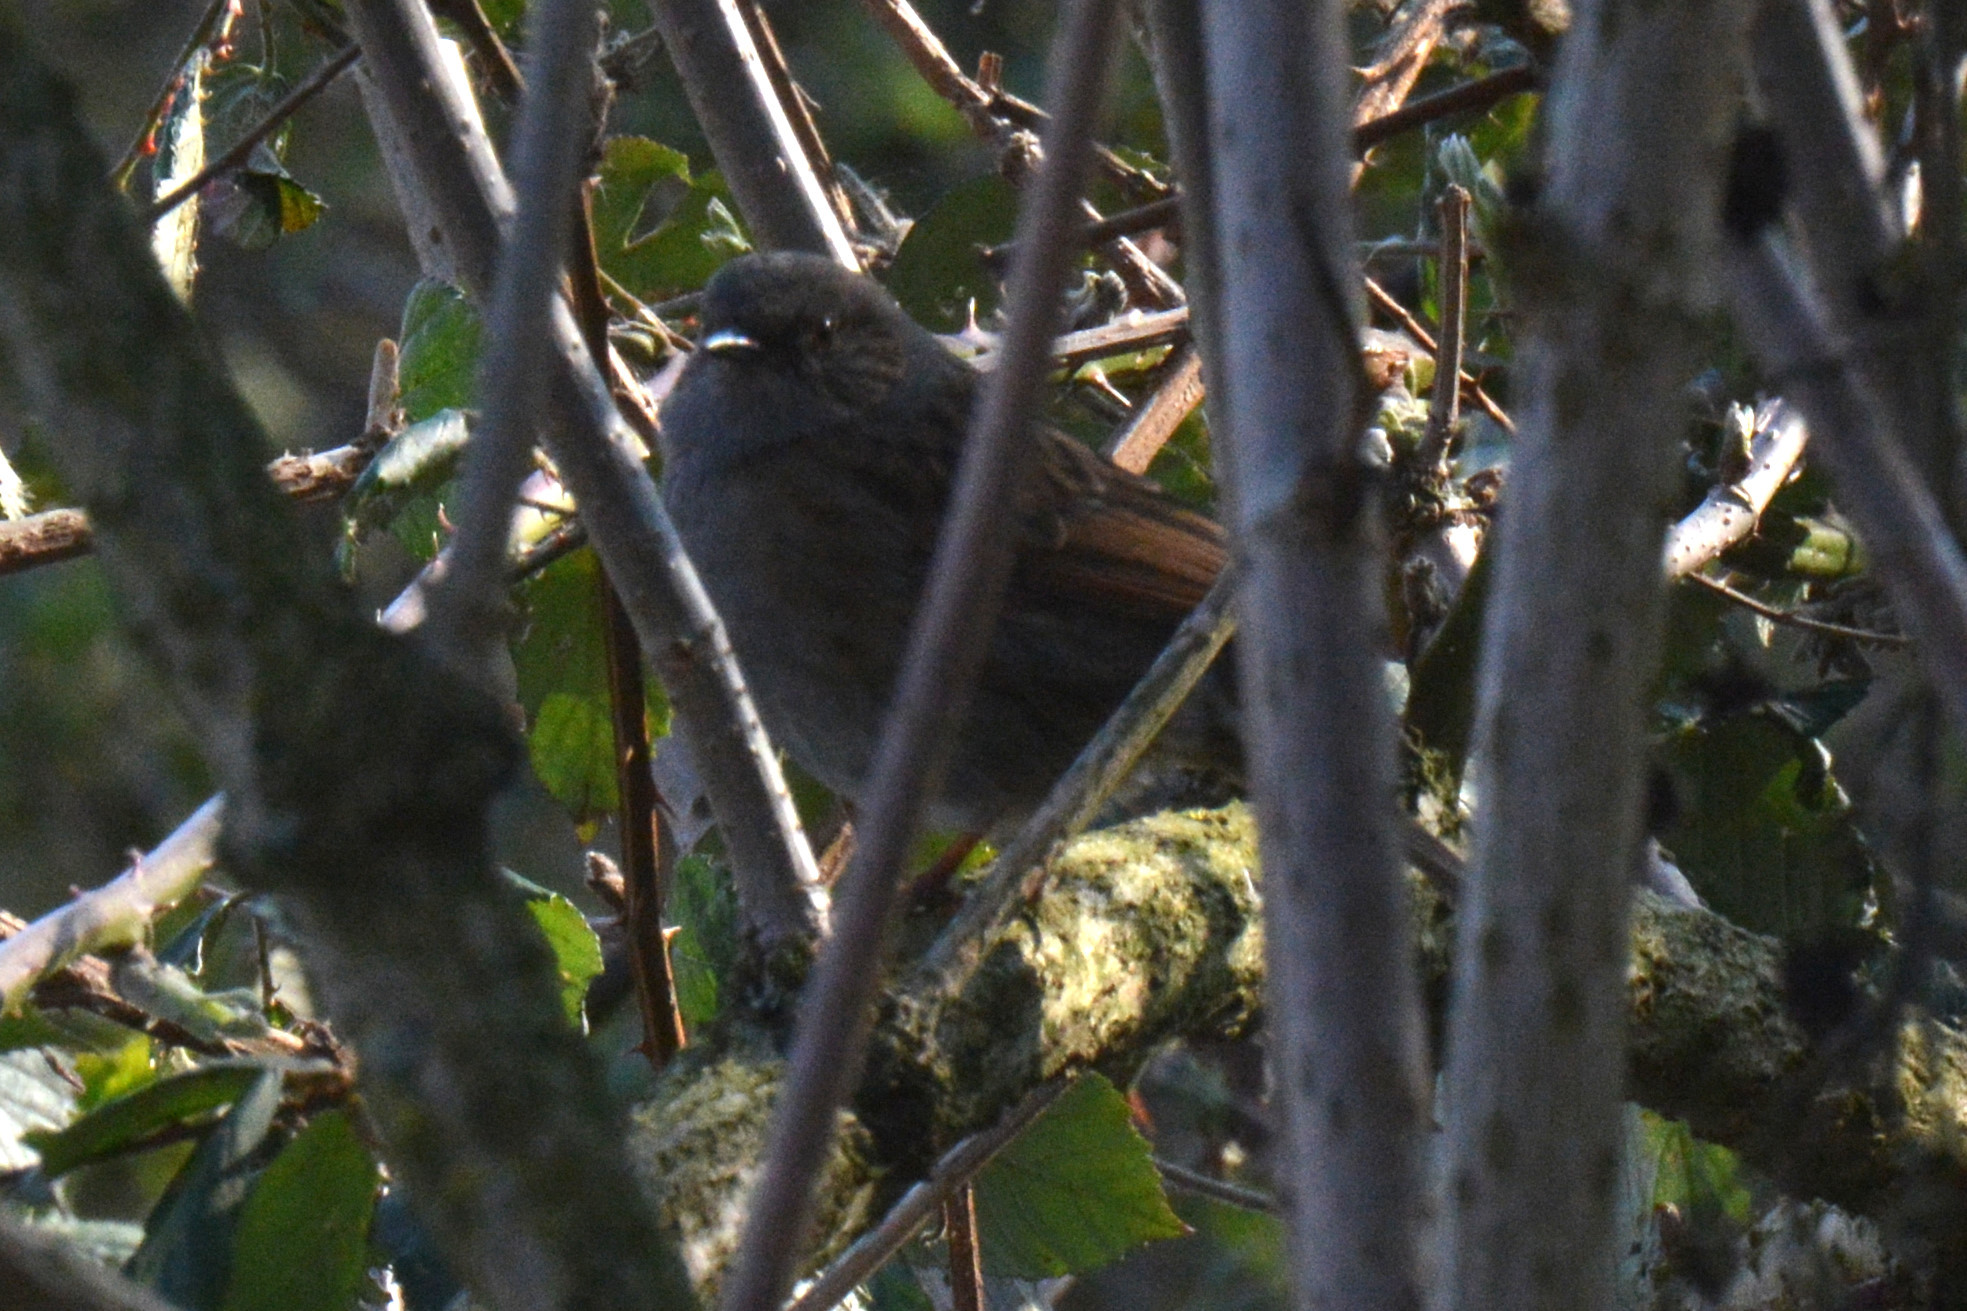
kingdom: Animalia
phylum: Chordata
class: Aves
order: Passeriformes
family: Prunellidae
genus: Prunella
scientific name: Prunella modularis
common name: Dunnock
